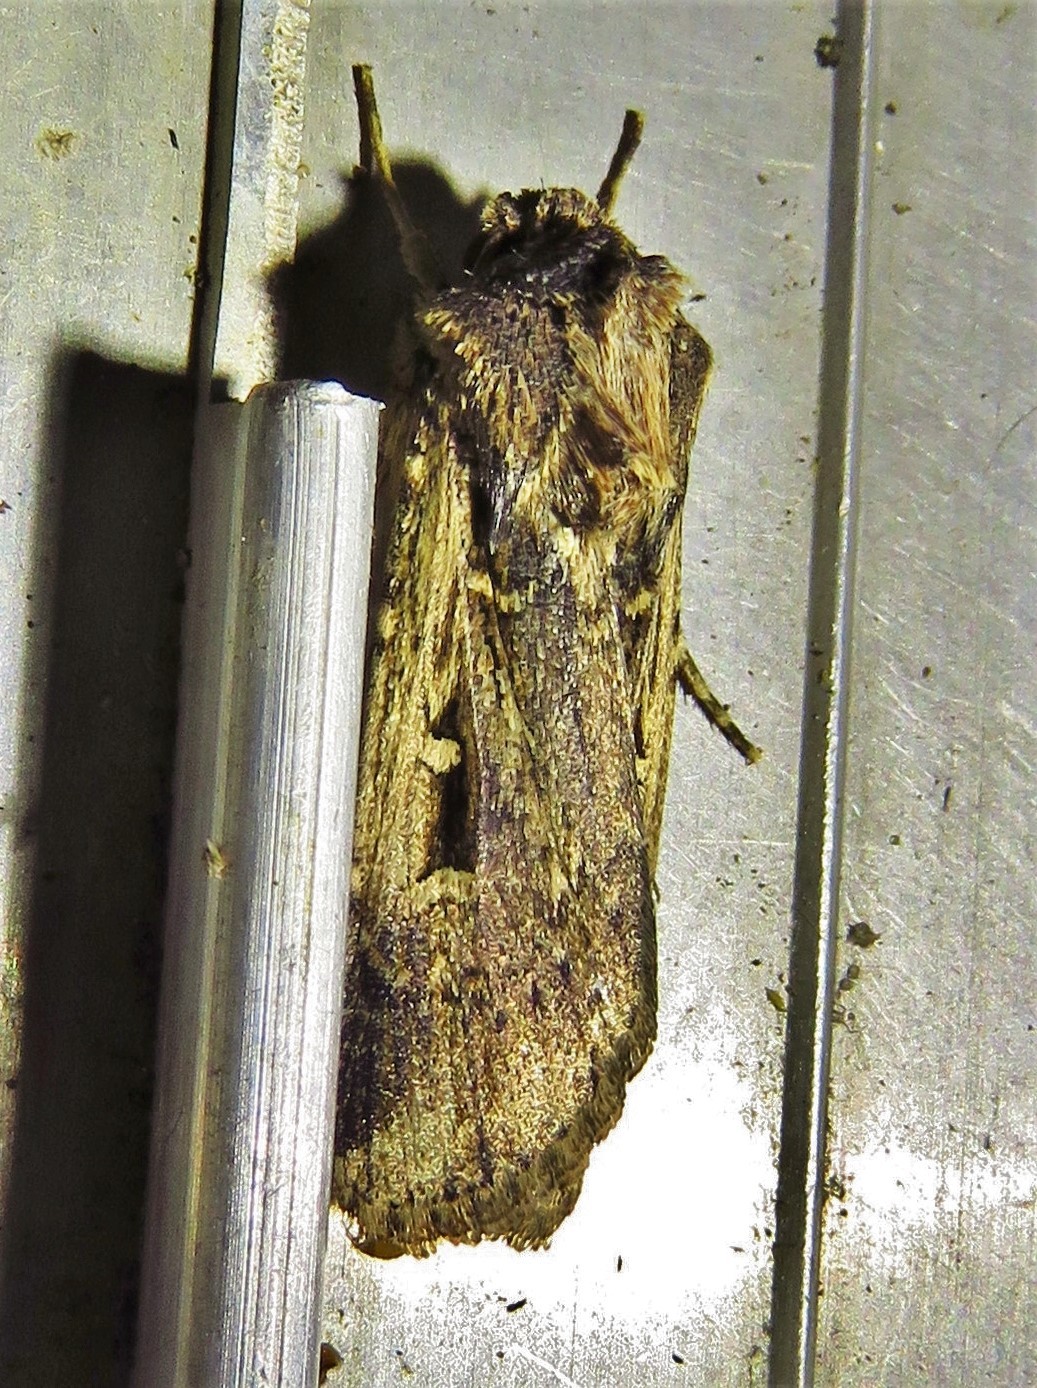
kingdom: Animalia
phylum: Arthropoda
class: Insecta
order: Lepidoptera
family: Noctuidae
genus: Feltia
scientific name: Feltia subterranea
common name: Granulate cutworm
